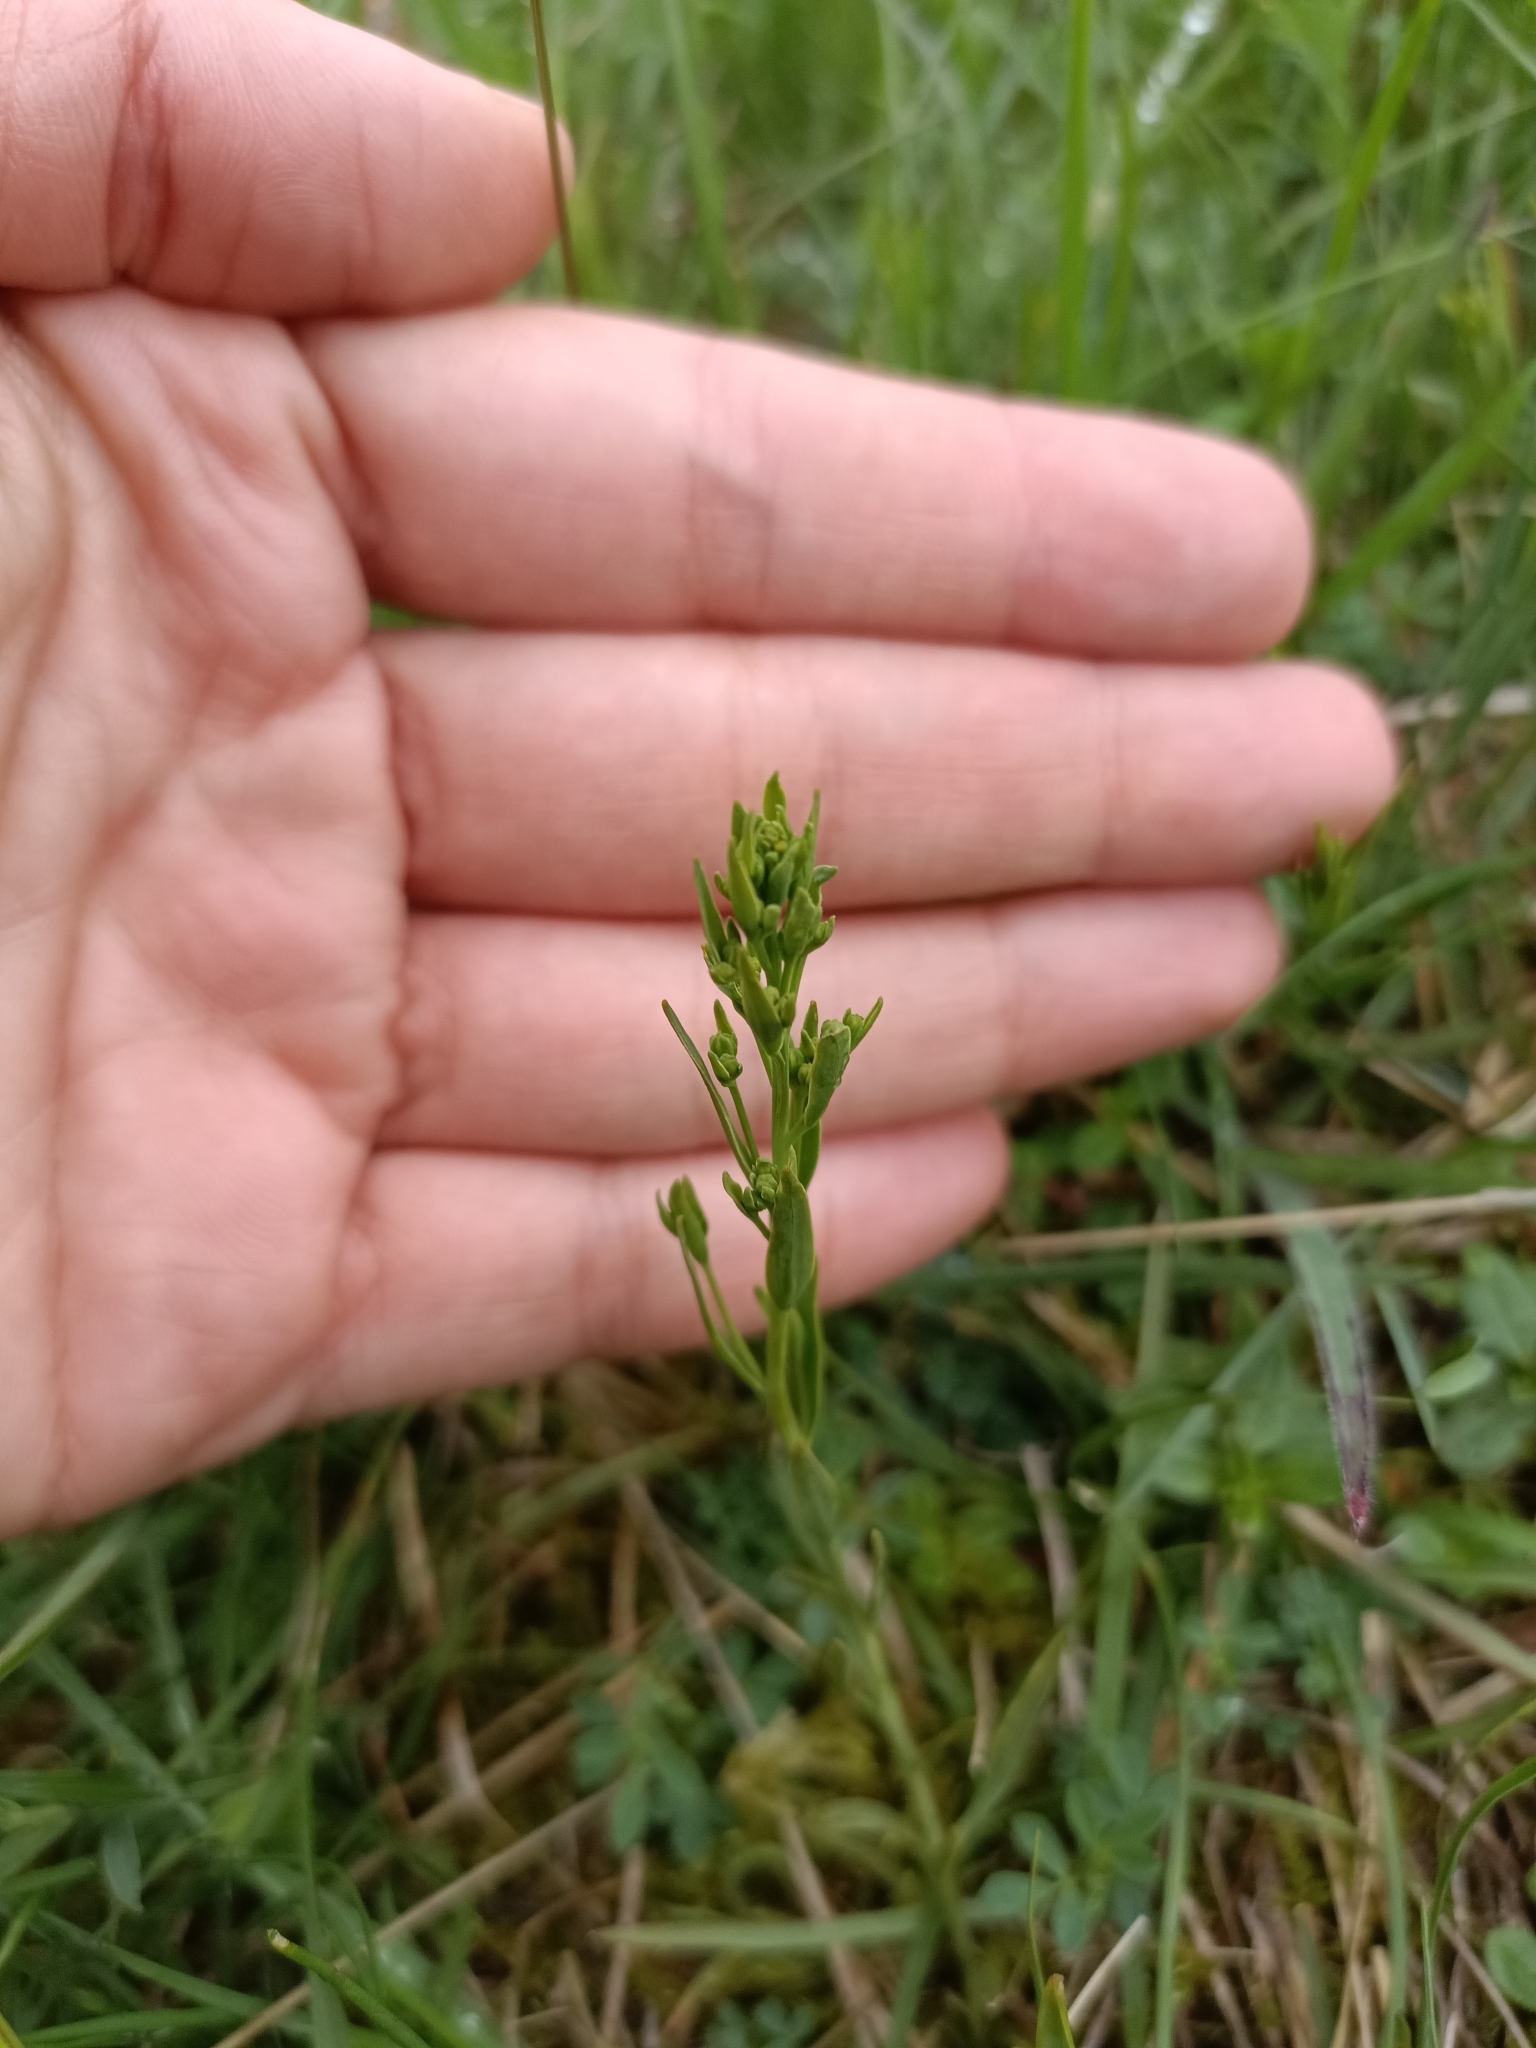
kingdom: Plantae
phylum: Tracheophyta
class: Magnoliopsida
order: Santalales
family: Thesiaceae
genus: Thesium
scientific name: Thesium linophyllon
